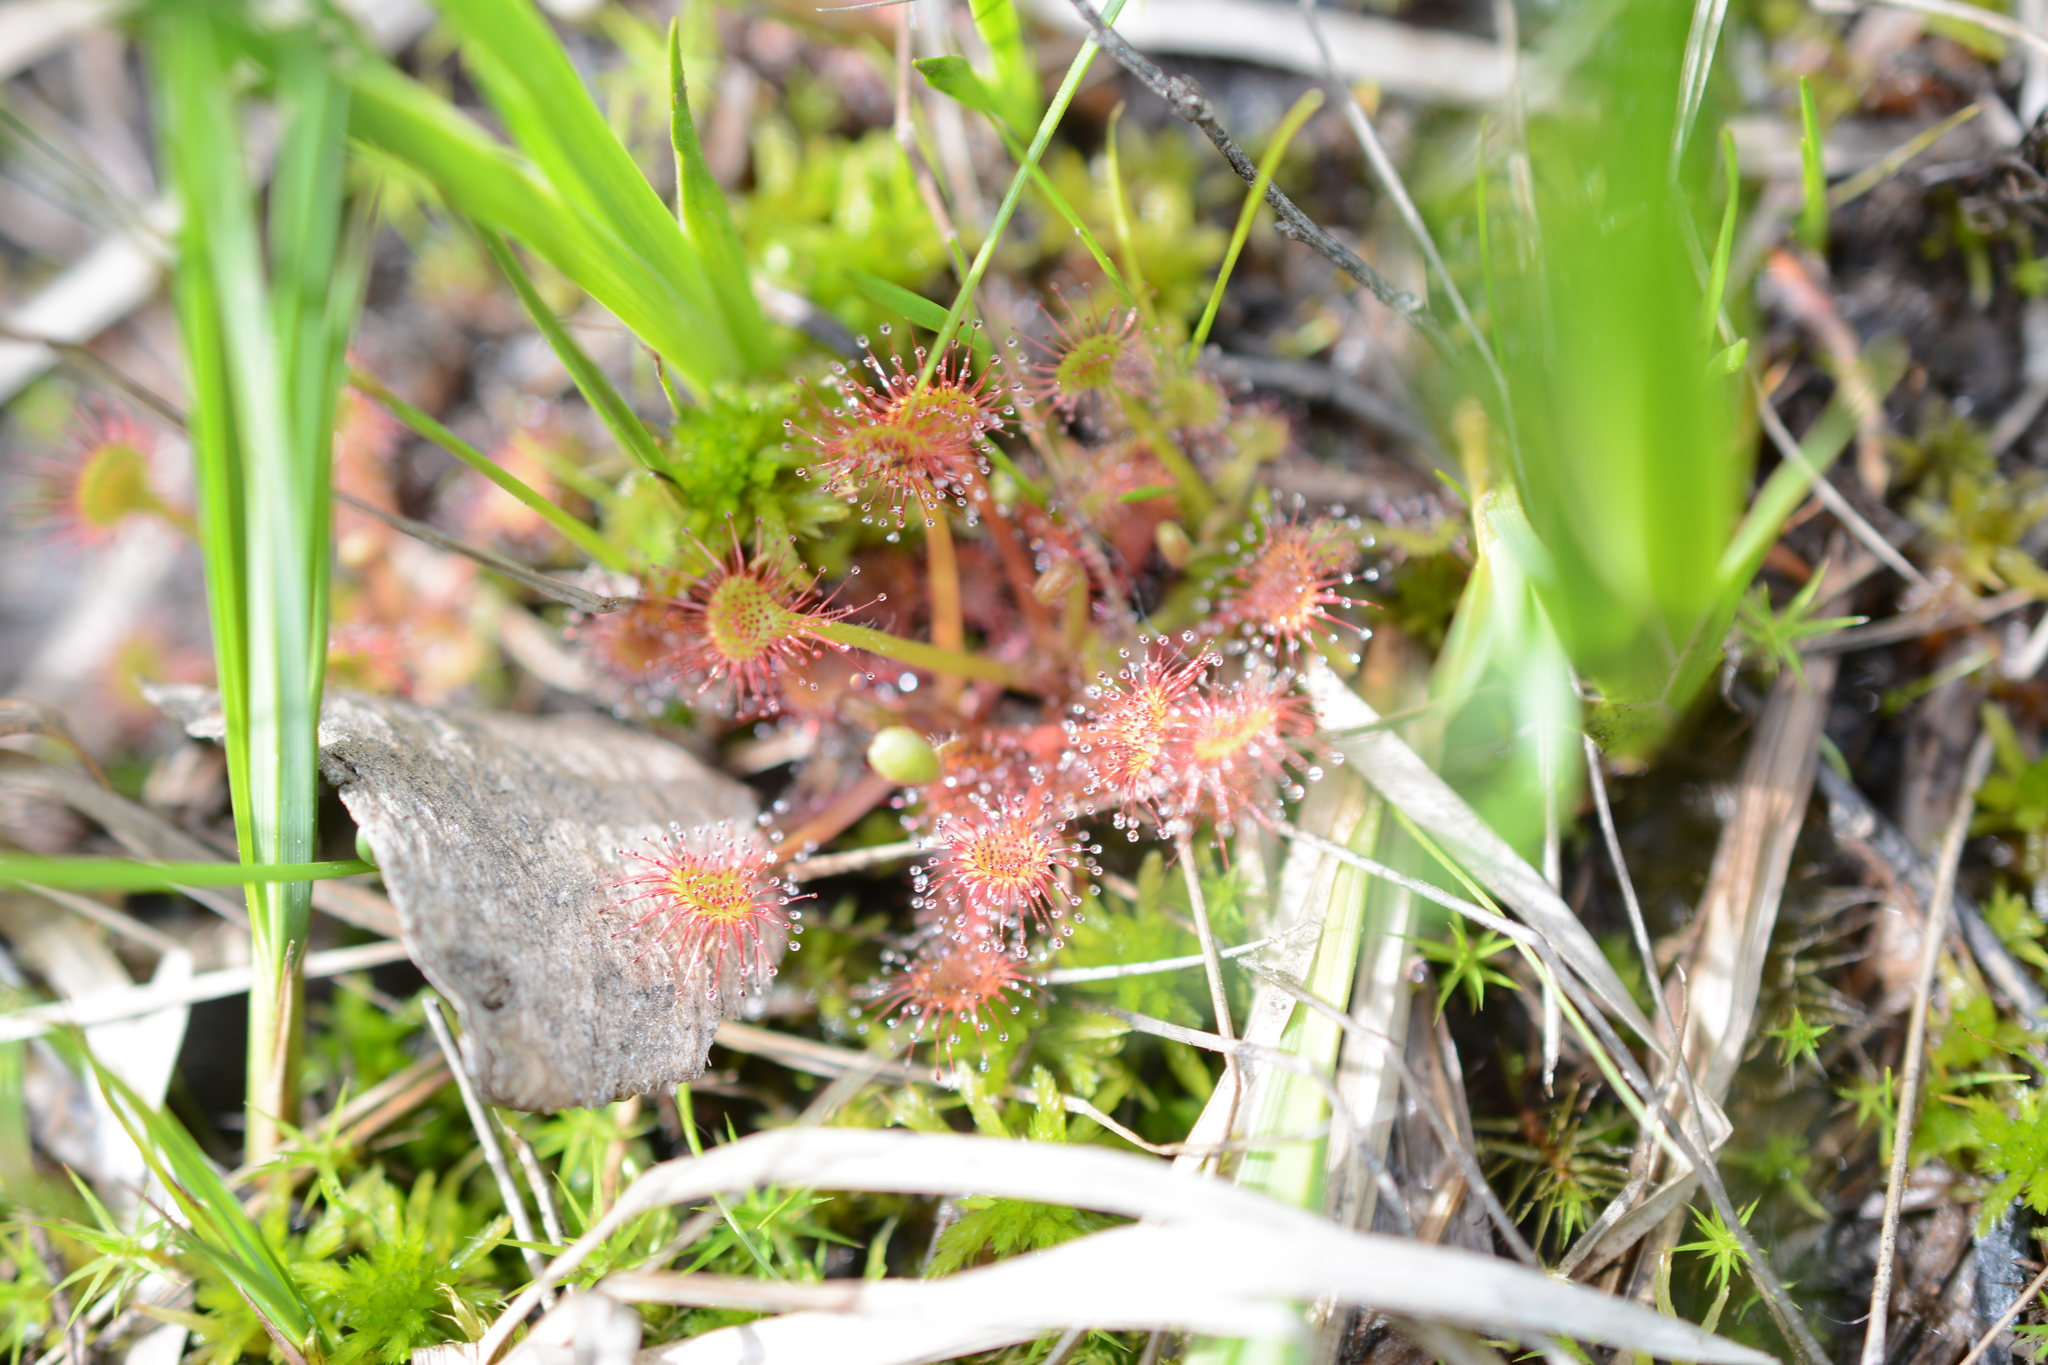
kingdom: Plantae
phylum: Tracheophyta
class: Magnoliopsida
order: Caryophyllales
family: Droseraceae
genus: Drosera
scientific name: Drosera rotundifolia
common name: Round-leaved sundew
